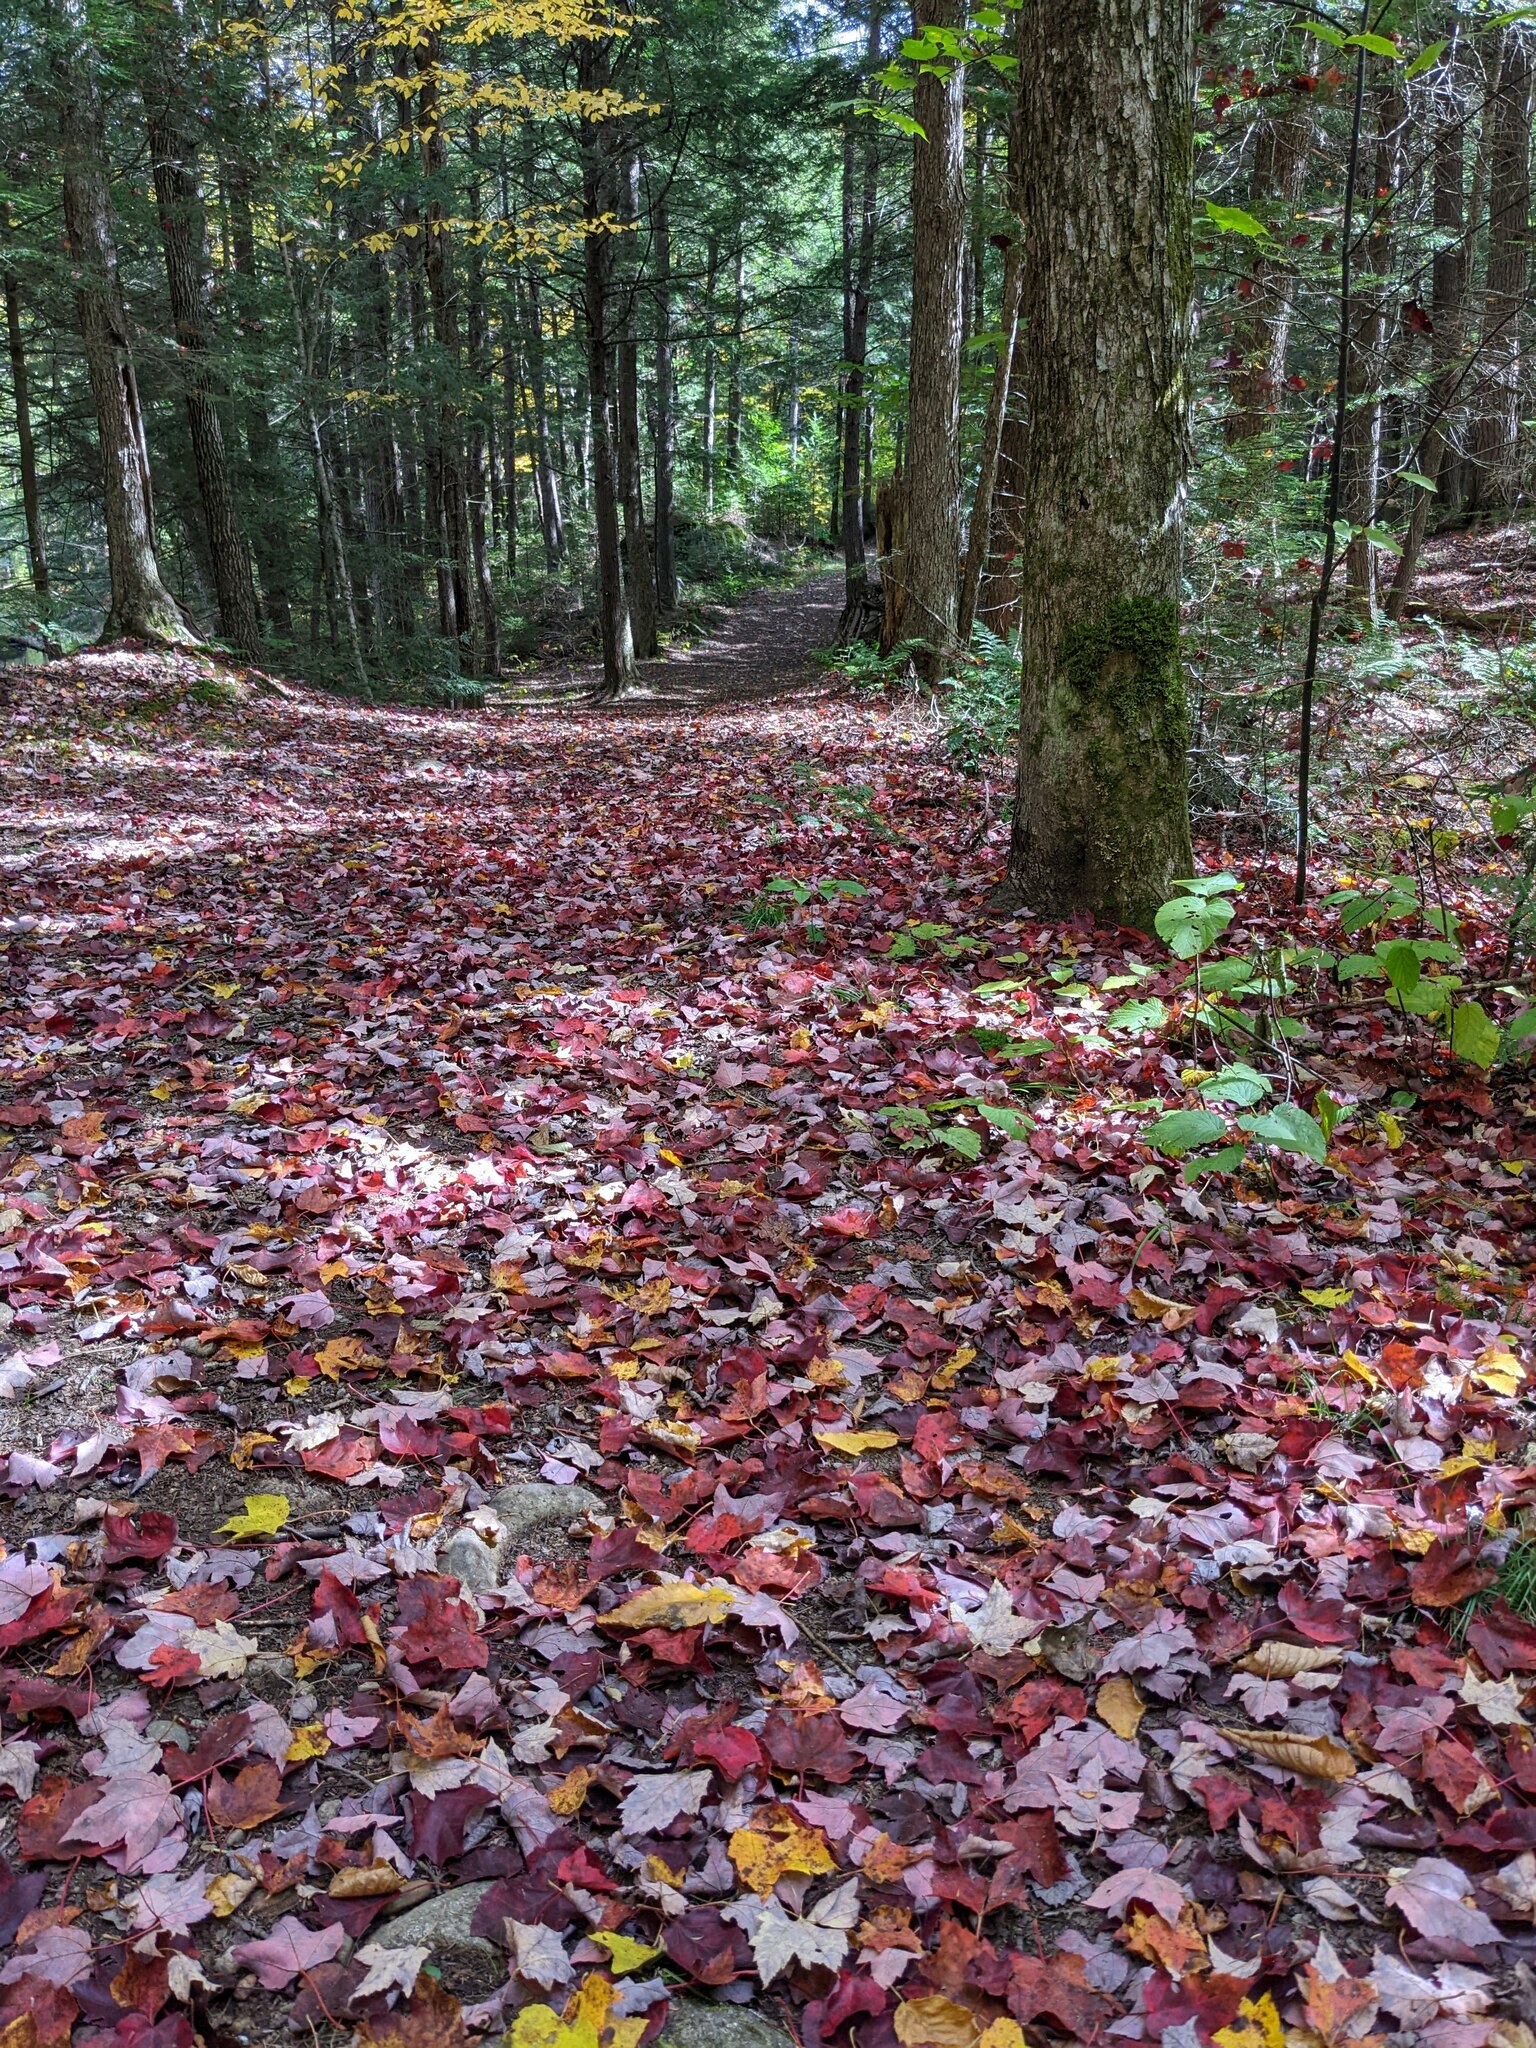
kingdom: Plantae
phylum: Tracheophyta
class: Magnoliopsida
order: Sapindales
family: Sapindaceae
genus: Acer
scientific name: Acer rubrum
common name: Red maple
